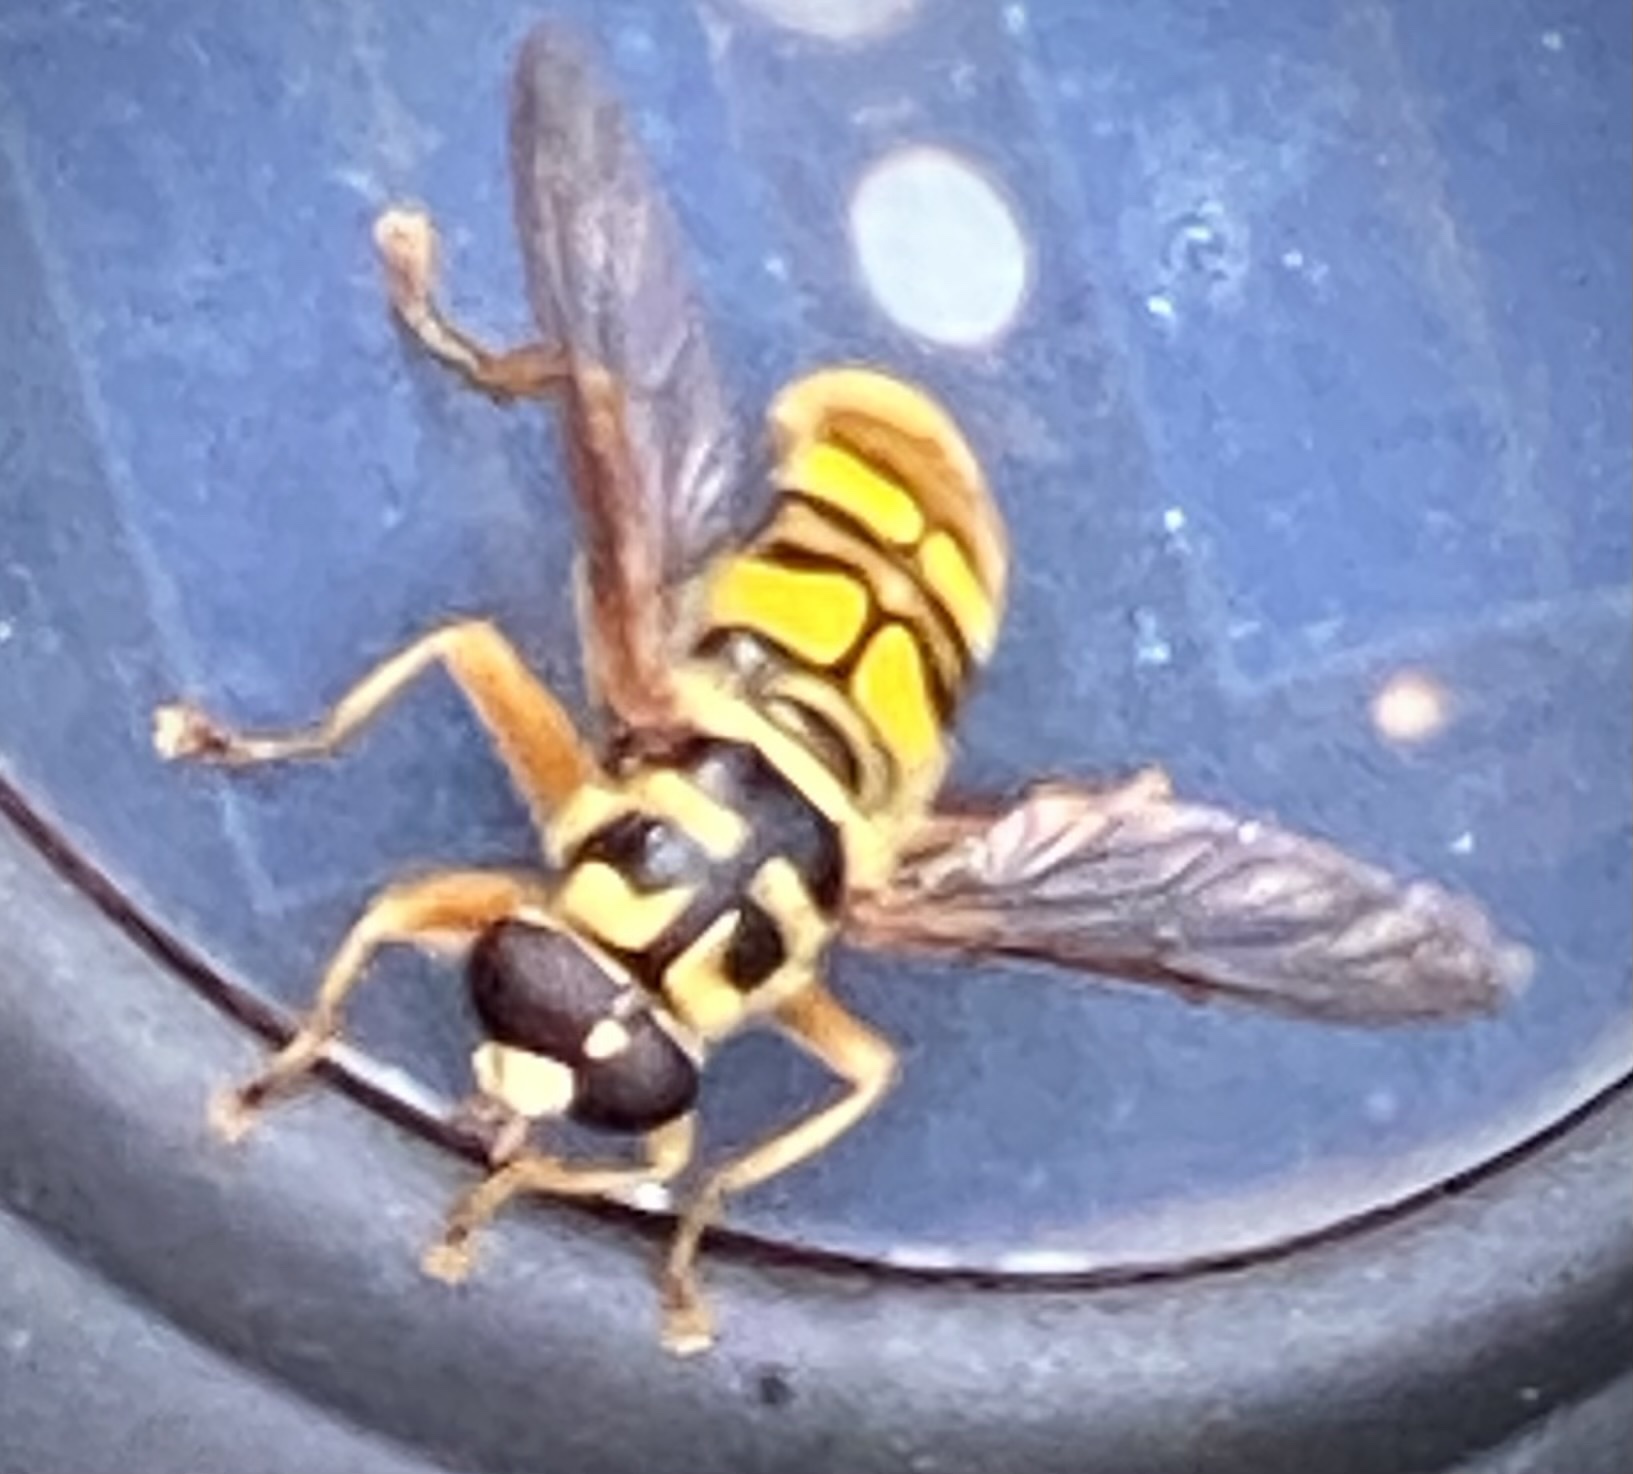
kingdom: Animalia
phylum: Arthropoda
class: Insecta
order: Diptera
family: Syrphidae
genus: Milesia
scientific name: Milesia virginiensis
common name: Virginia giant
